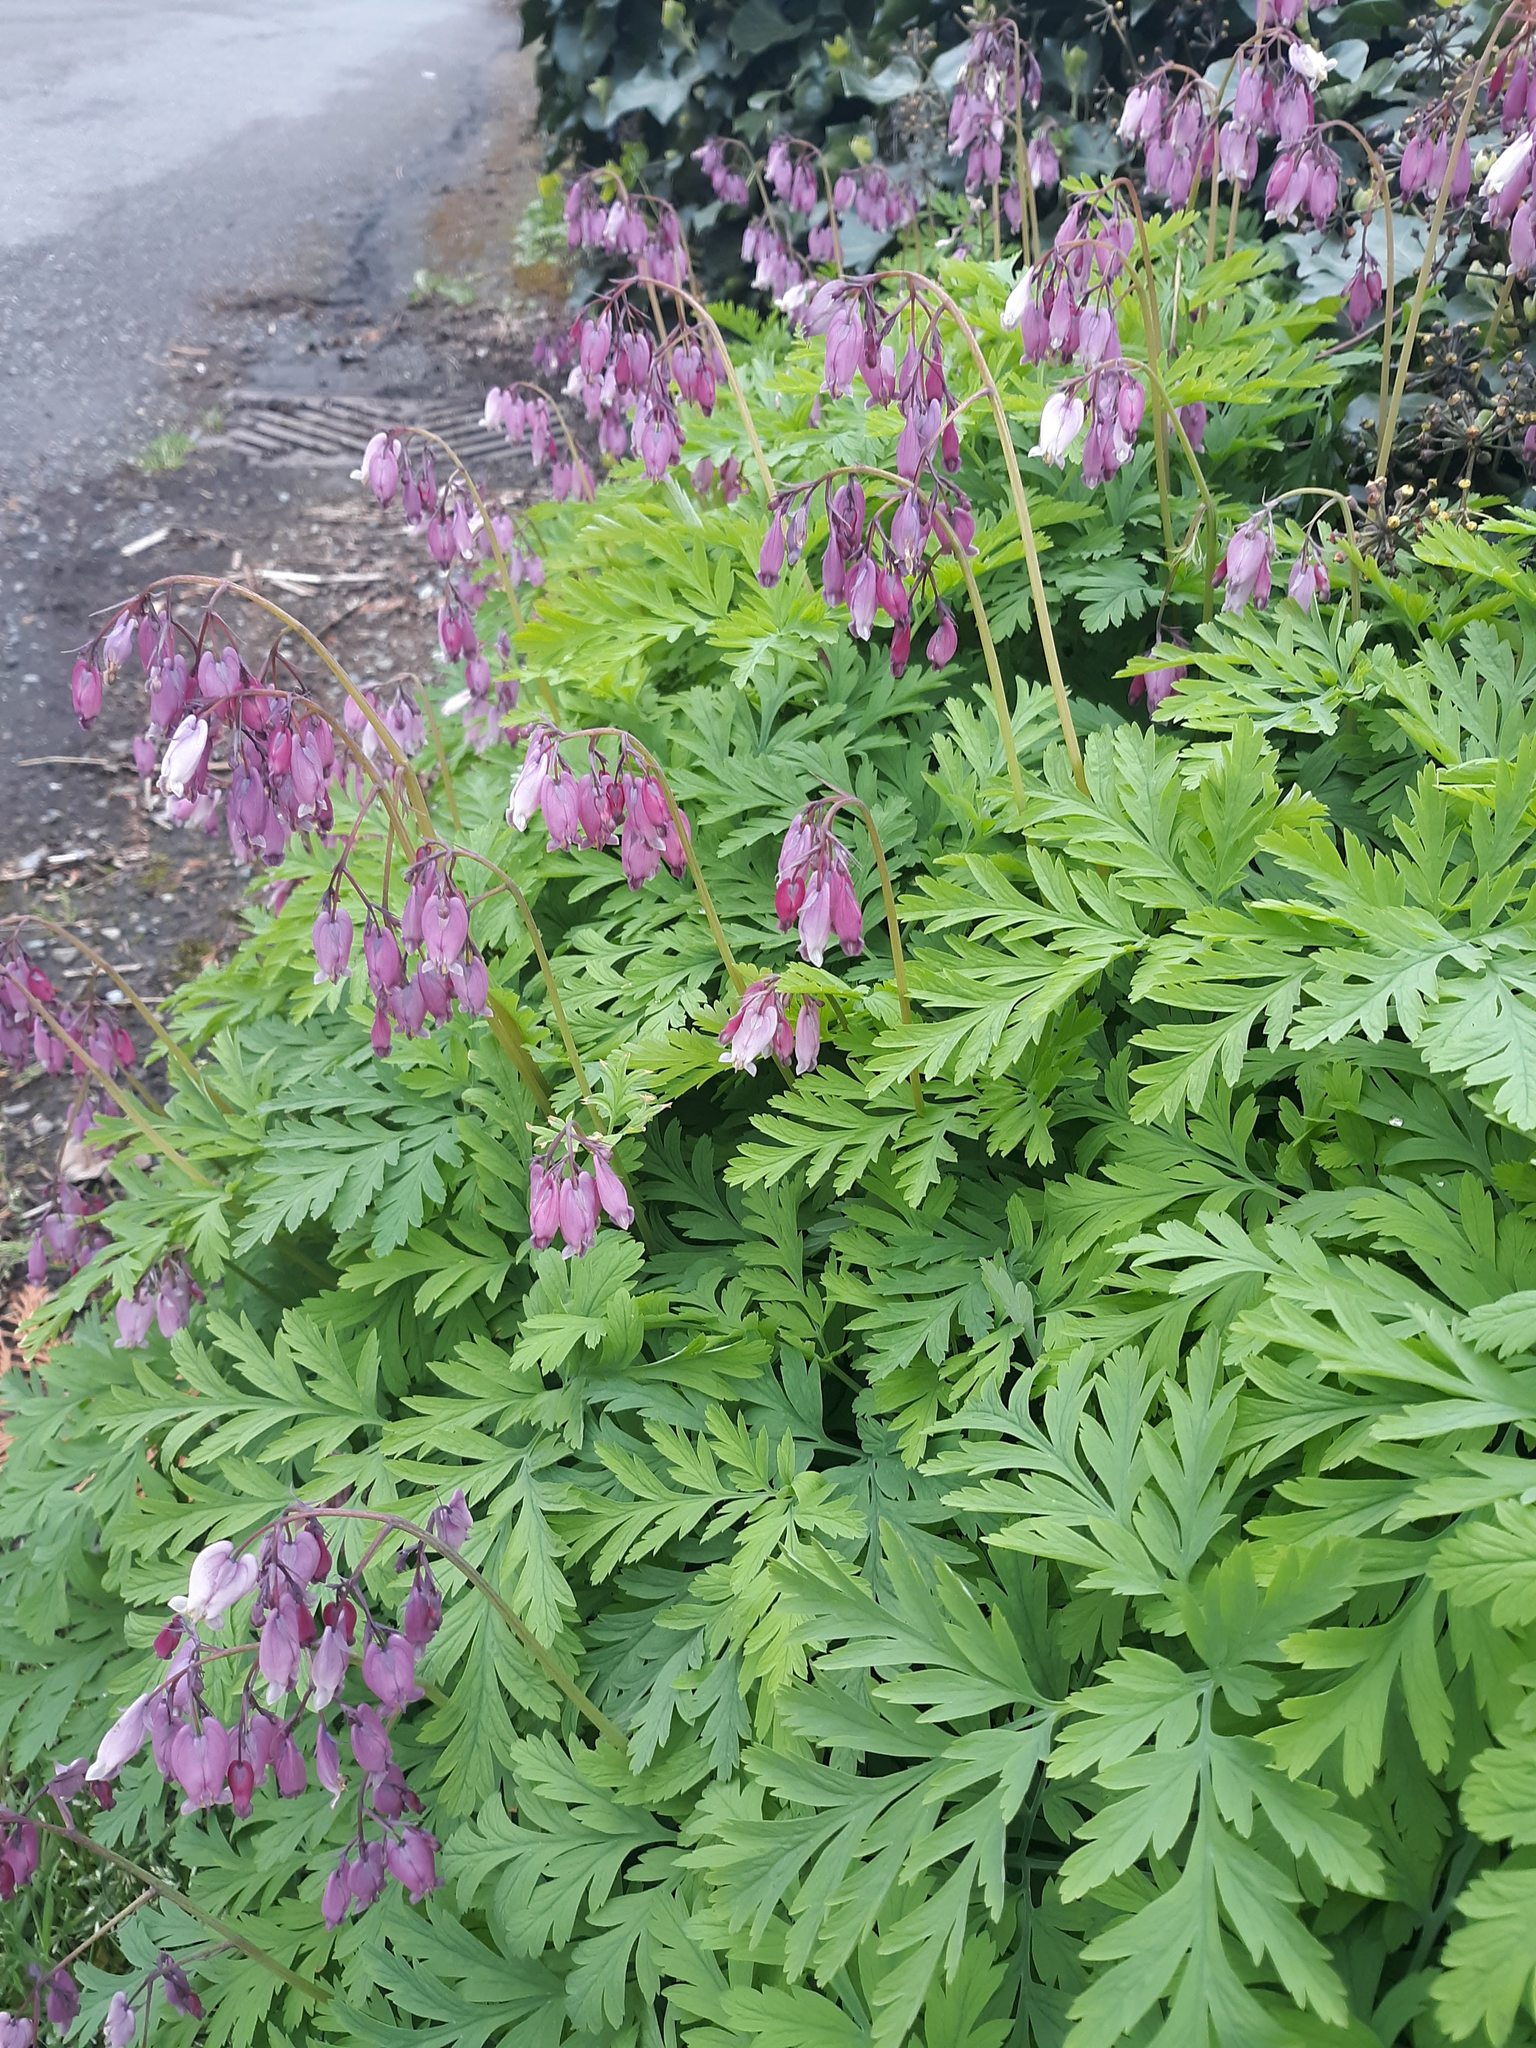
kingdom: Plantae
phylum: Tracheophyta
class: Magnoliopsida
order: Ranunculales
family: Papaveraceae
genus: Dicentra
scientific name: Dicentra formosa
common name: Bleeding-heart
